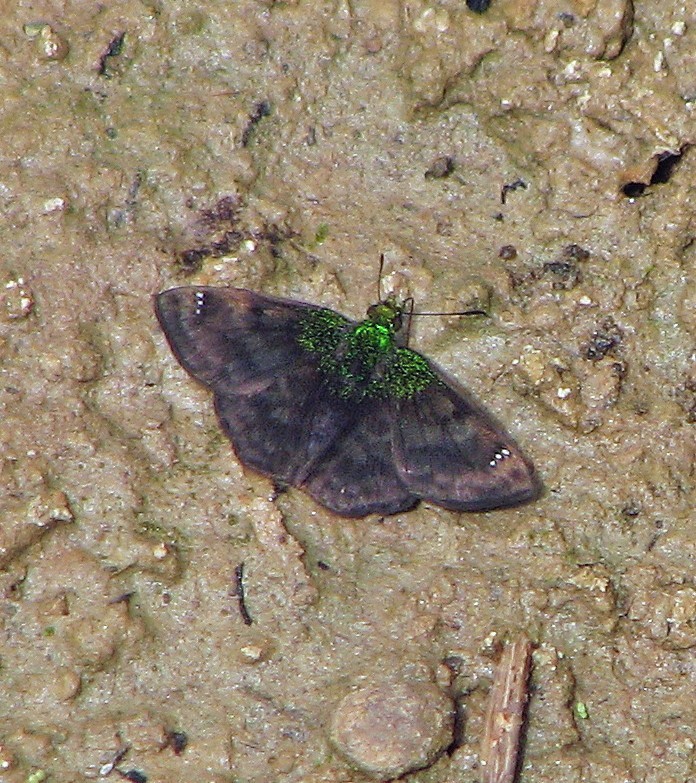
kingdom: Animalia
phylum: Arthropoda
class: Insecta
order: Lepidoptera
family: Hesperiidae
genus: Gorgopas
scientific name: Gorgopas trochilus
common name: Green-shouldered sootywing
